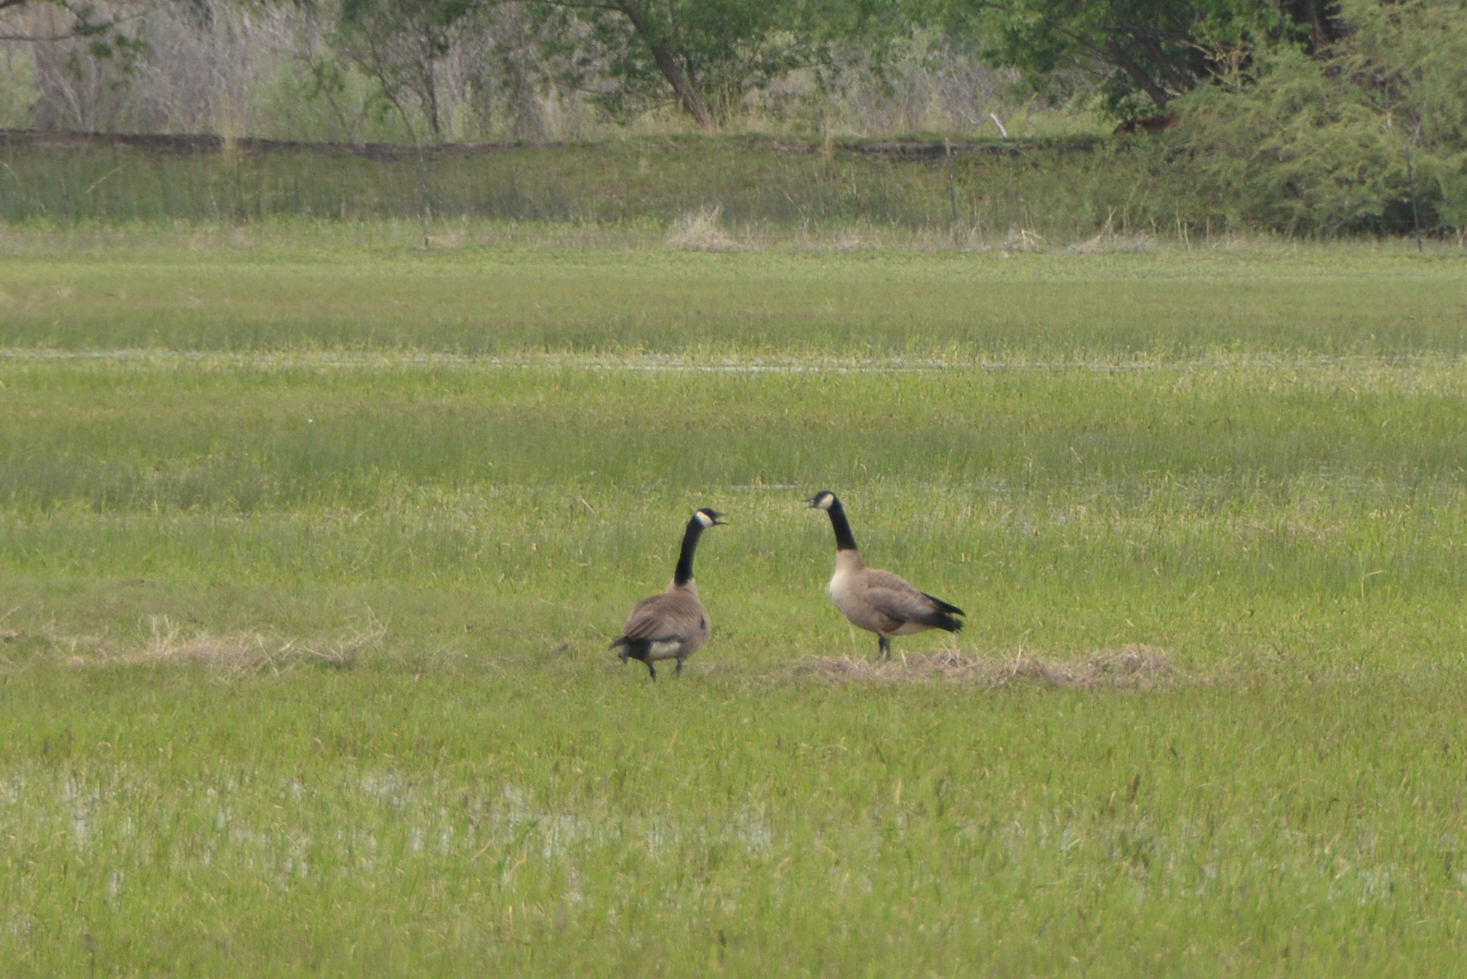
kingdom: Animalia
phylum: Chordata
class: Aves
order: Anseriformes
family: Anatidae
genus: Branta
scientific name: Branta canadensis
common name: Canada goose
